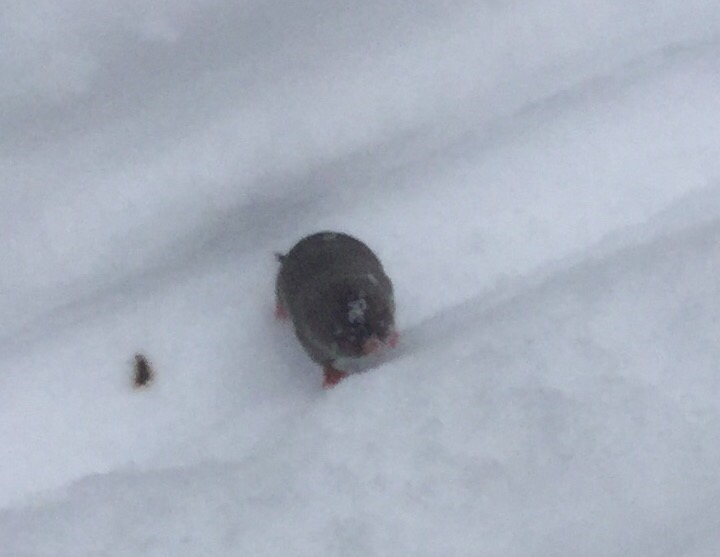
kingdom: Animalia
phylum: Chordata
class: Mammalia
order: Soricomorpha
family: Soricidae
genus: Blarina
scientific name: Blarina brevicauda
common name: Northern short-tailed shrew
